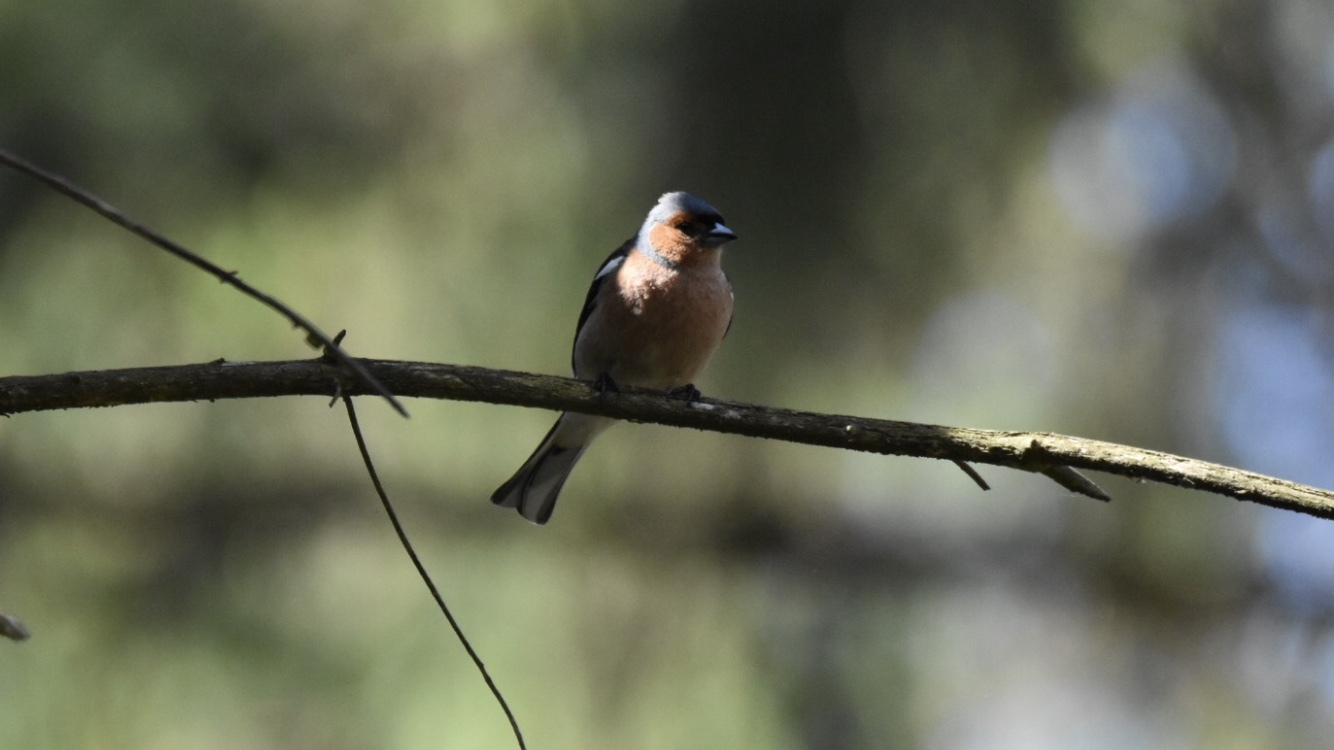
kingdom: Animalia
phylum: Chordata
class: Aves
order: Passeriformes
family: Fringillidae
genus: Fringilla
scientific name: Fringilla coelebs
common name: Common chaffinch
